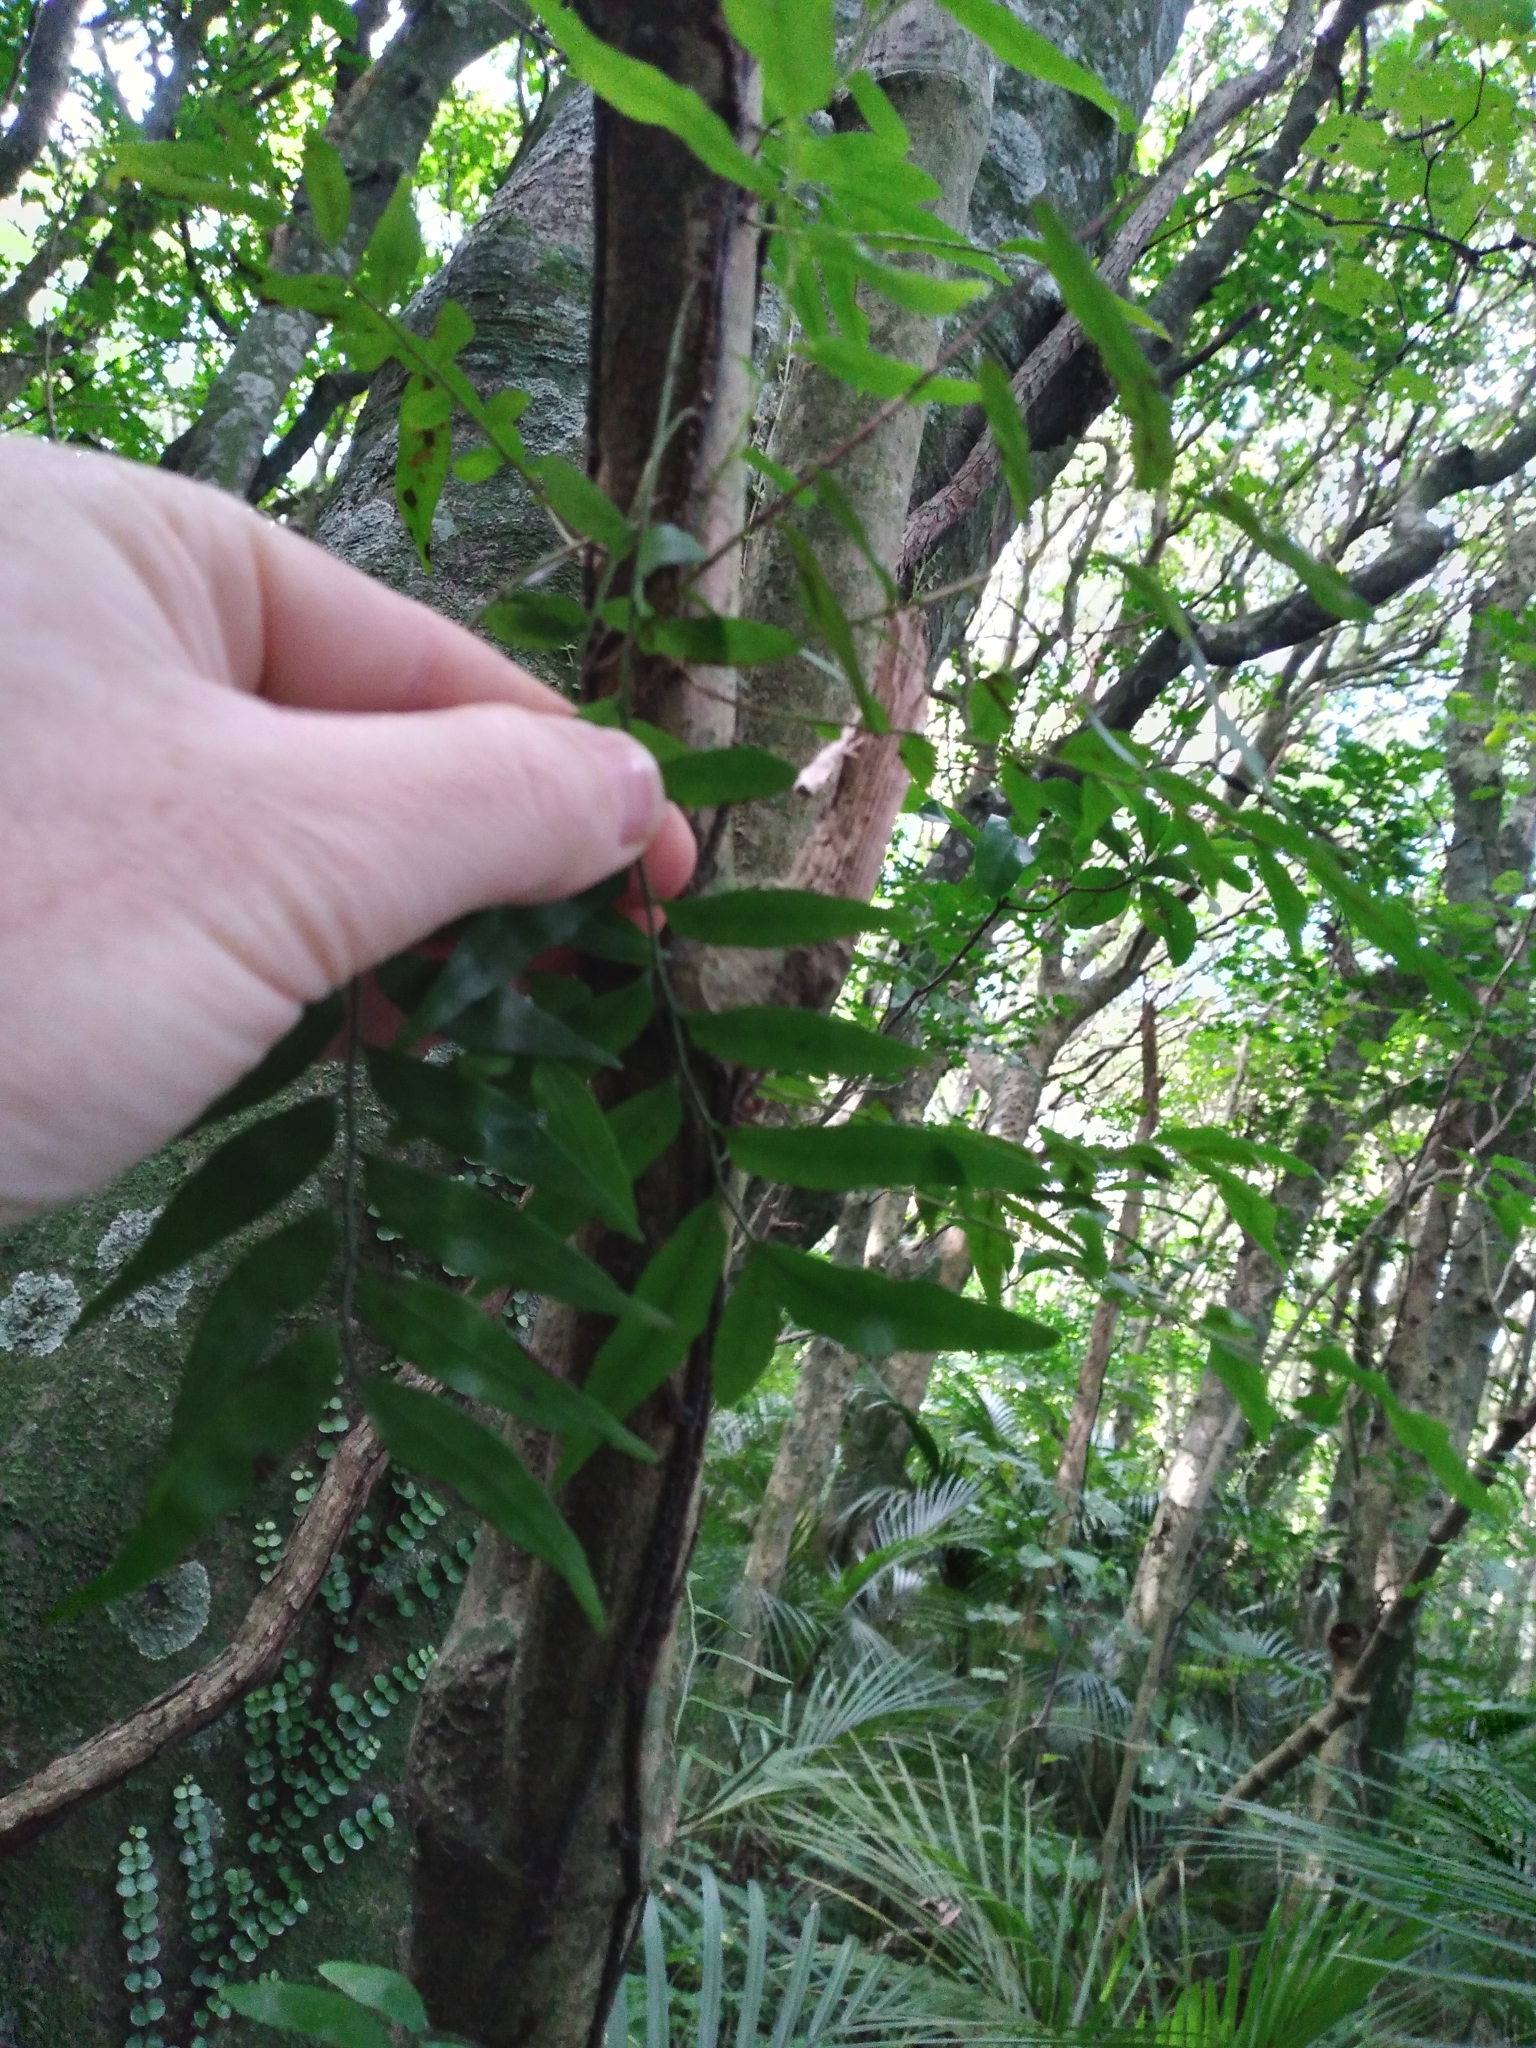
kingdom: Plantae
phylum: Tracheophyta
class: Polypodiopsida
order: Polypodiales
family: Tectariaceae
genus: Arthropteris
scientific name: Arthropteris tenella
